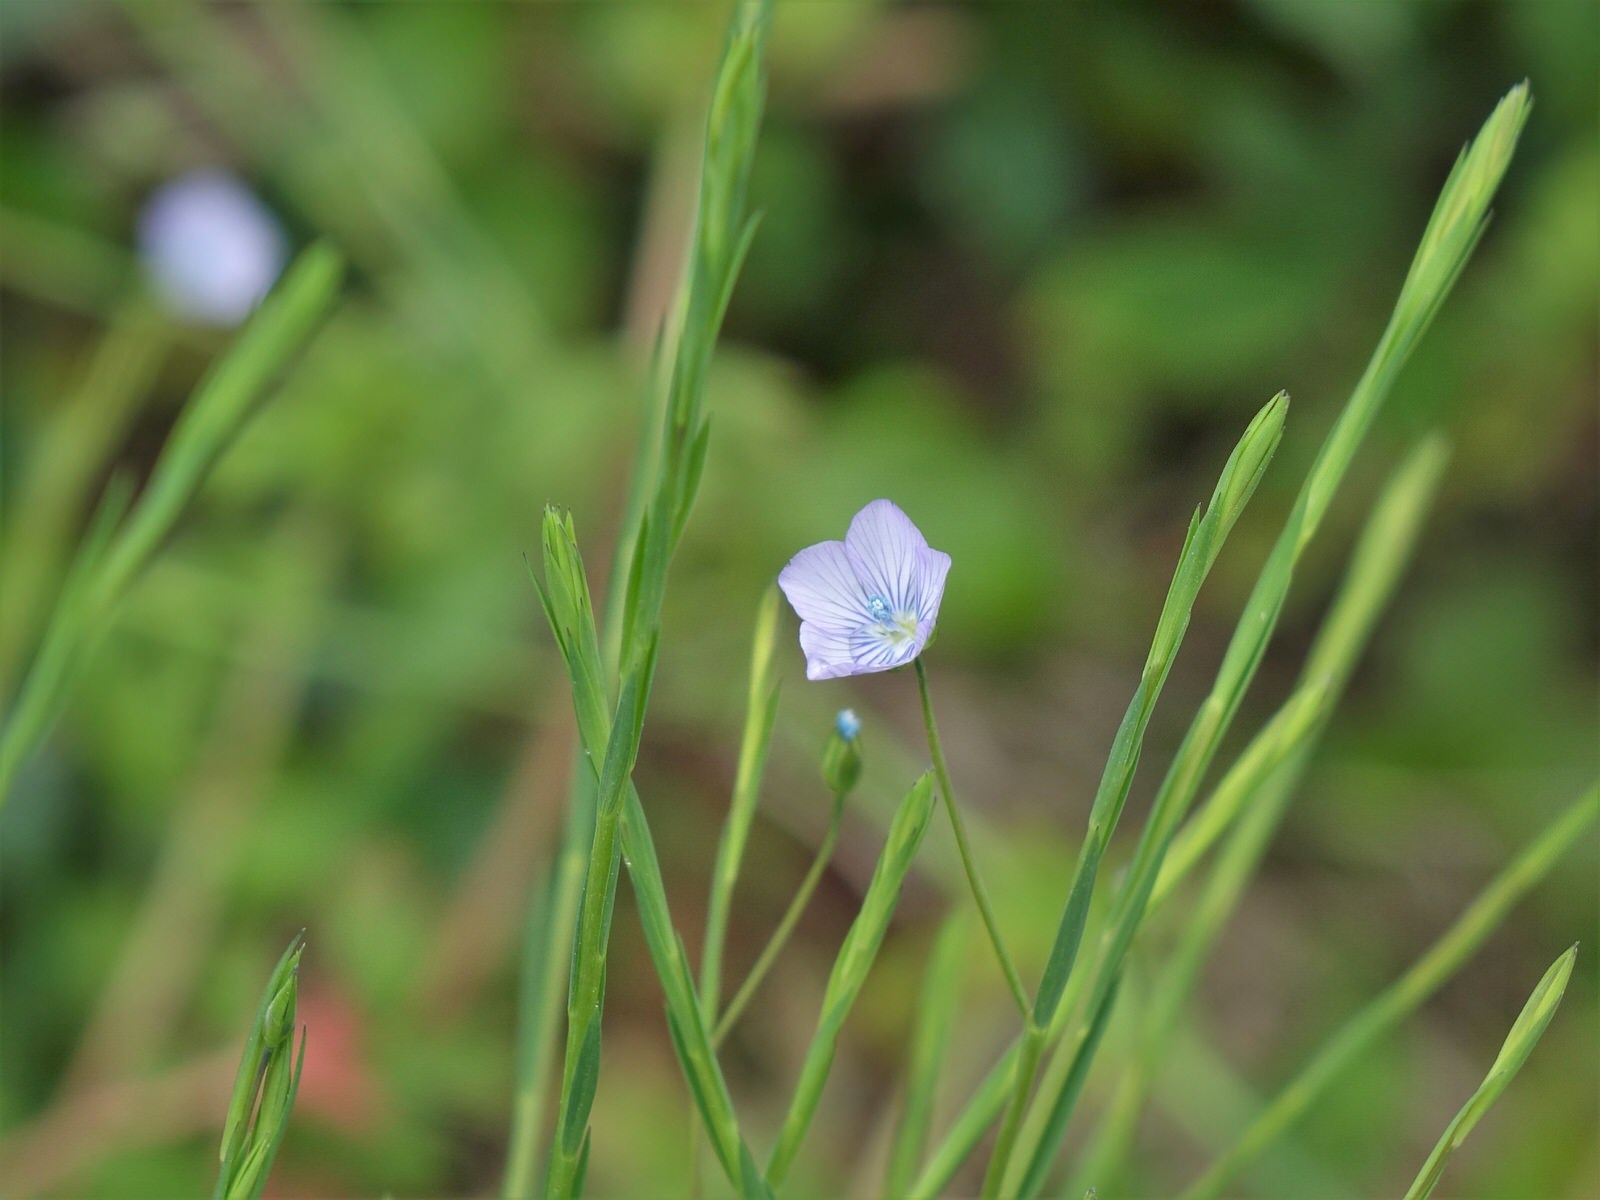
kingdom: Plantae
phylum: Tracheophyta
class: Magnoliopsida
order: Malpighiales
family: Linaceae
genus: Linum
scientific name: Linum usitatissimum
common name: Flax
